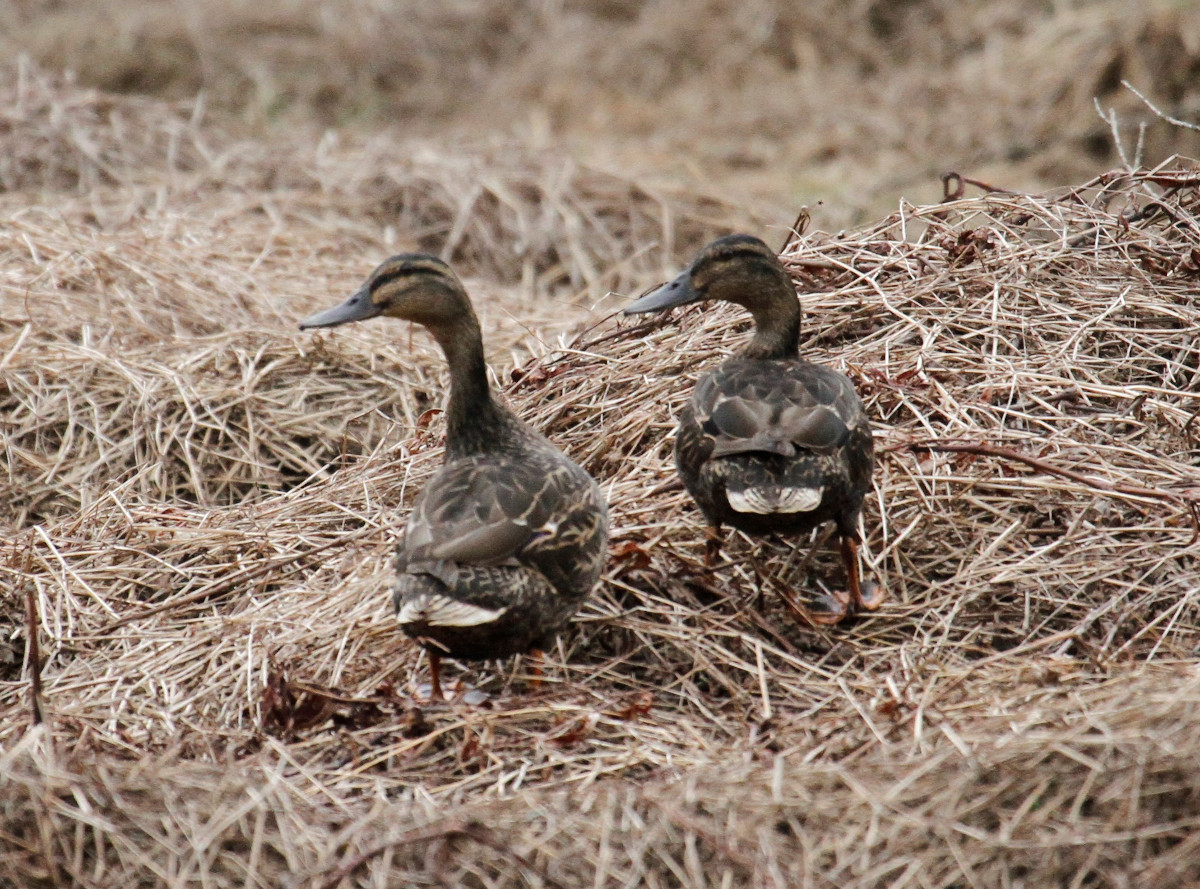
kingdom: Animalia
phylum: Chordata
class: Aves
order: Anseriformes
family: Anatidae
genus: Anas
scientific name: Anas platyrhynchos
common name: Mallard
